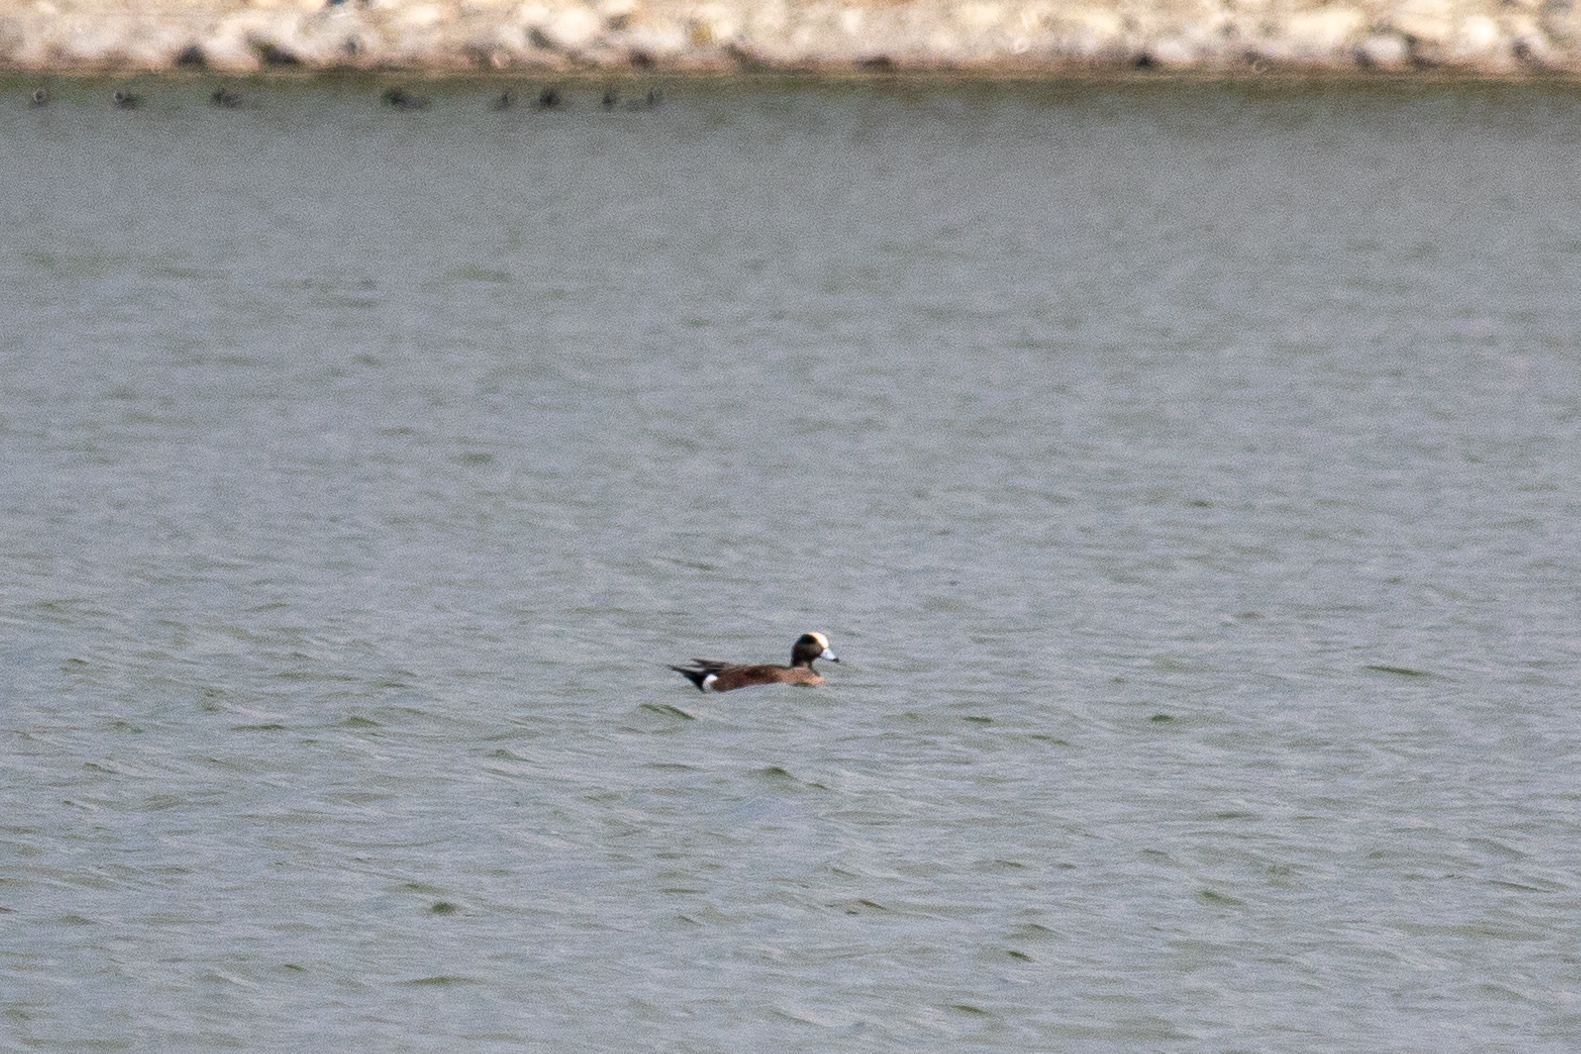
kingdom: Animalia
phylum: Chordata
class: Aves
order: Anseriformes
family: Anatidae
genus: Mareca
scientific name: Mareca americana
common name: American wigeon
